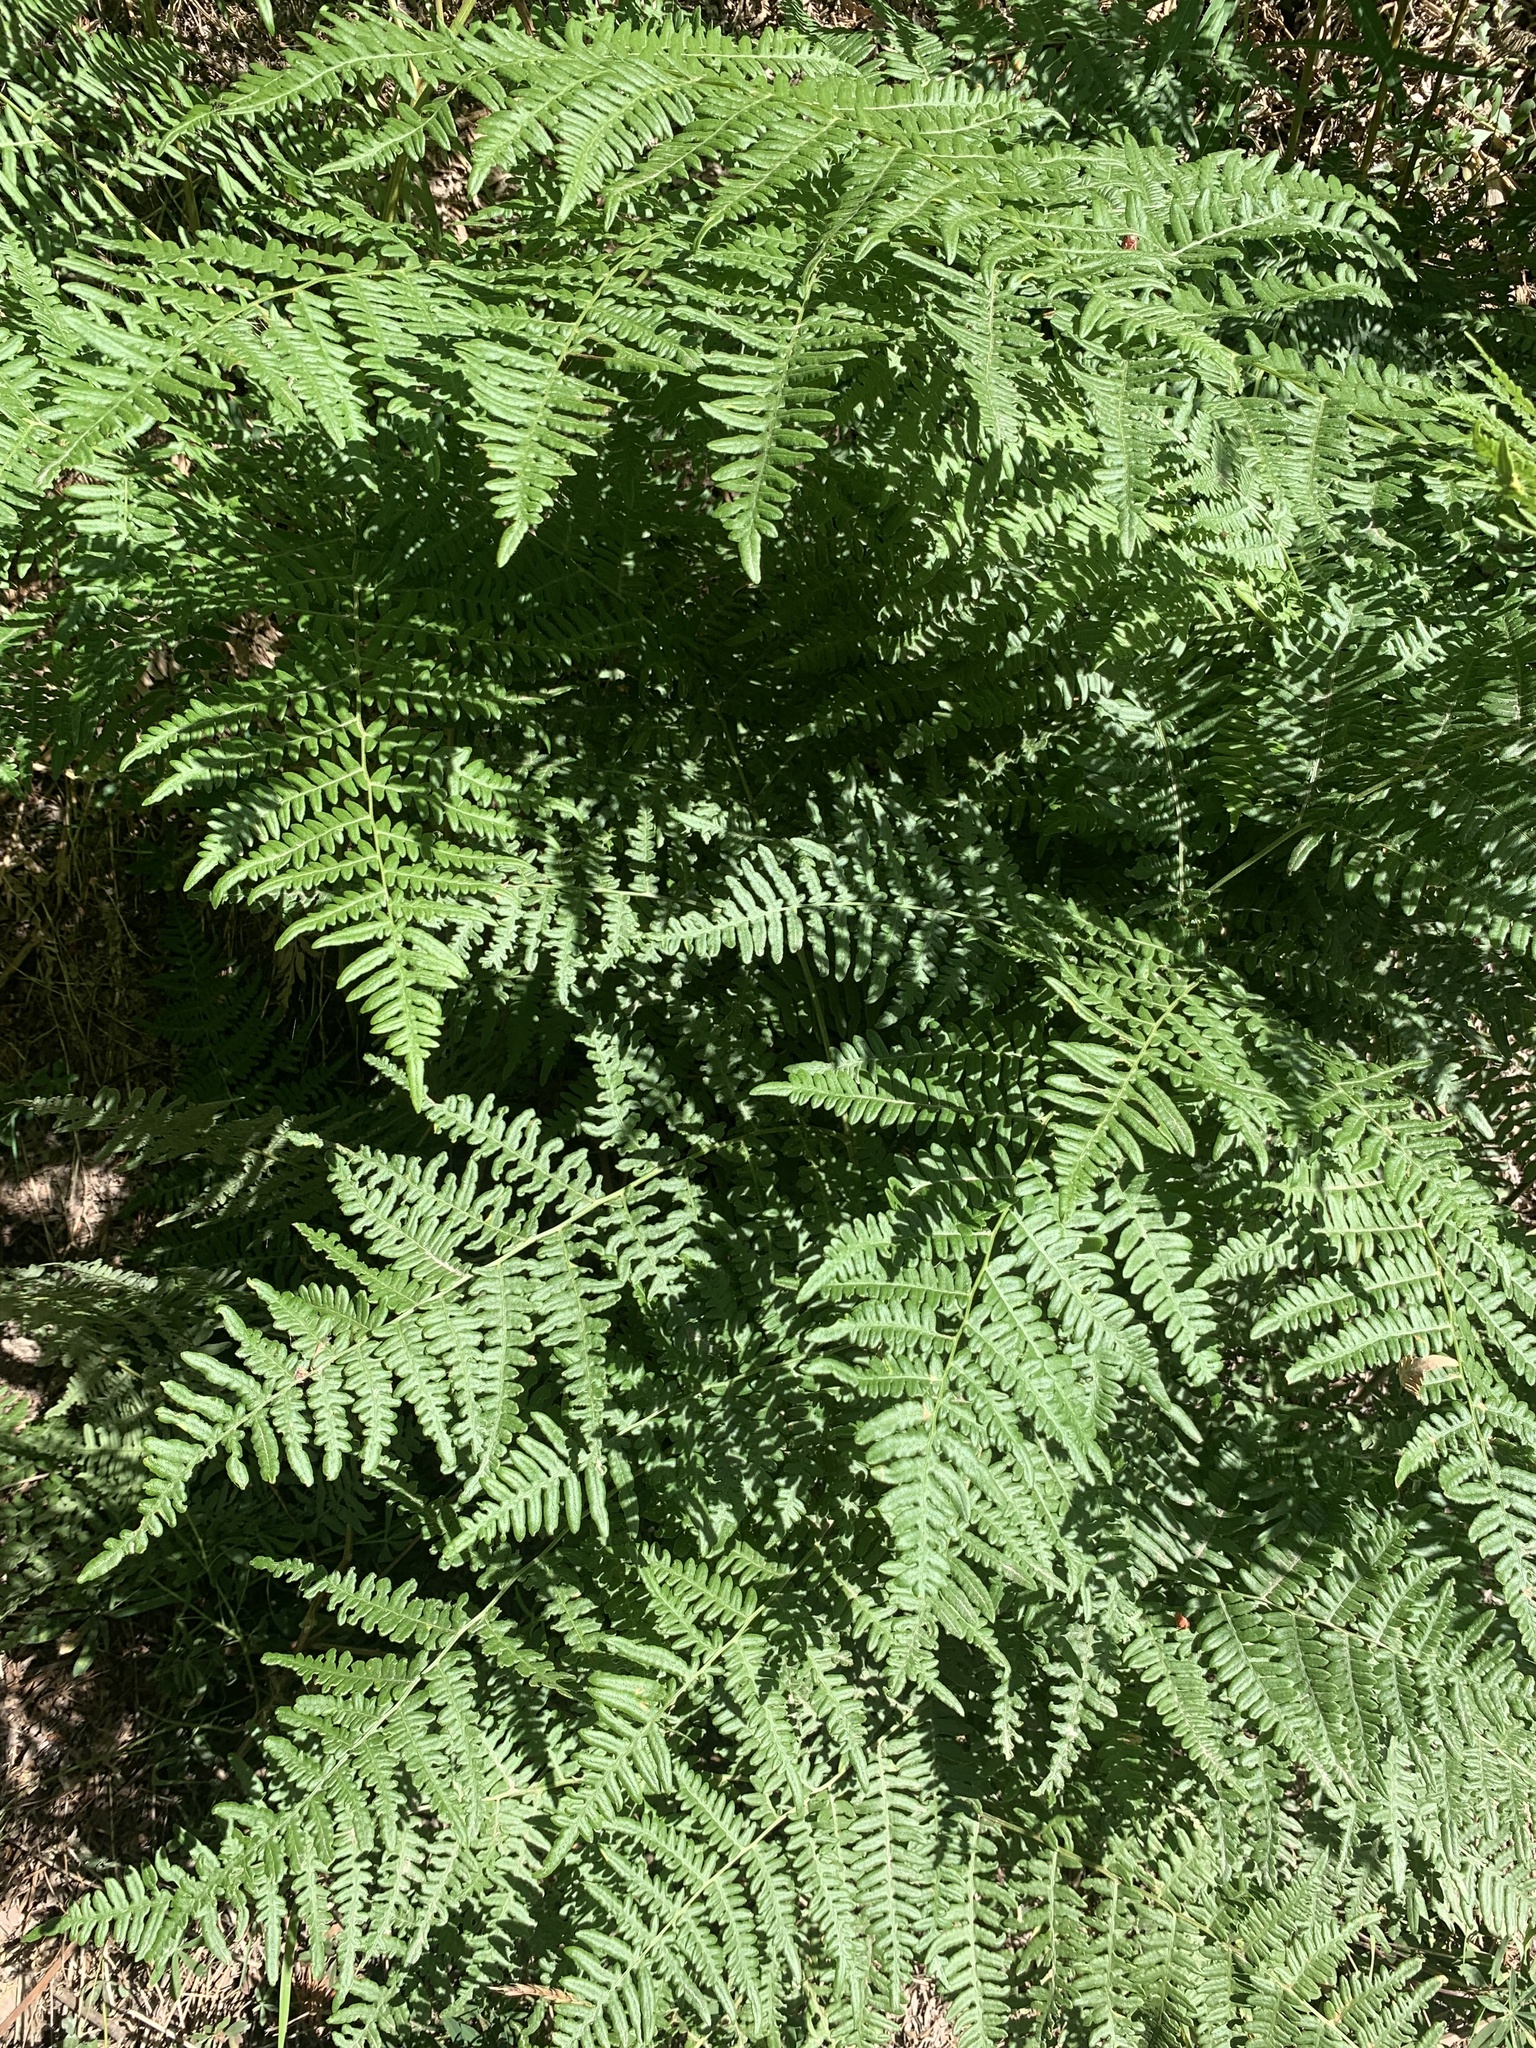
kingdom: Plantae
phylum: Tracheophyta
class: Polypodiopsida
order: Polypodiales
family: Dennstaedtiaceae
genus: Pteridium
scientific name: Pteridium aquilinum
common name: Bracken
